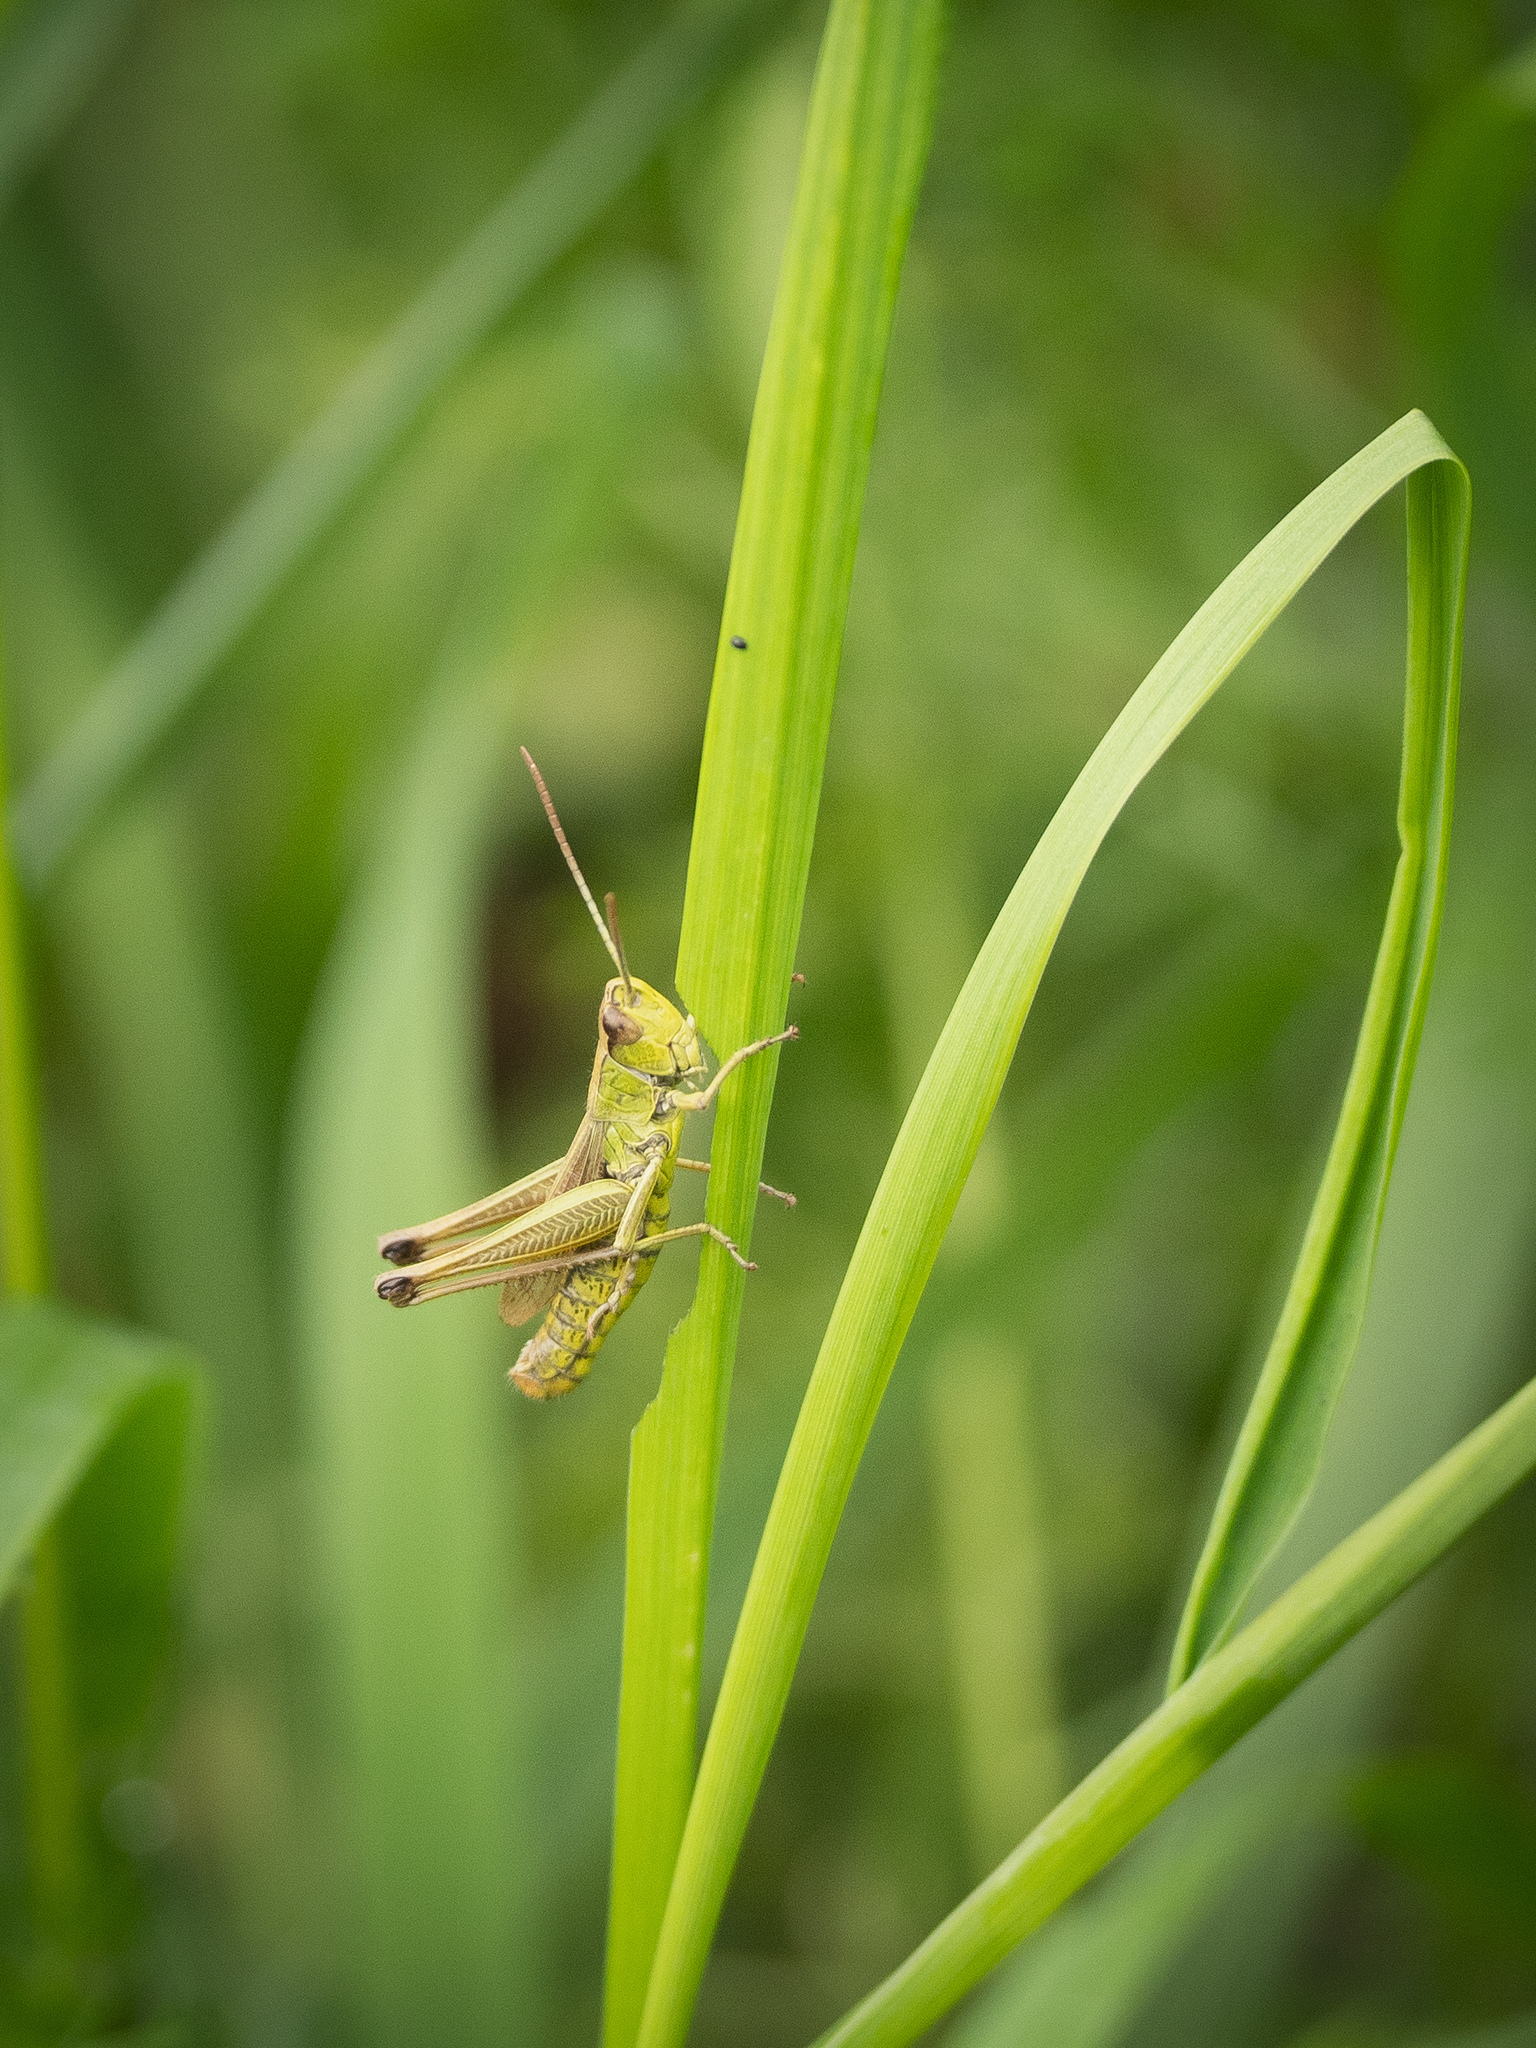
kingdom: Animalia
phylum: Arthropoda
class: Insecta
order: Orthoptera
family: Acrididae
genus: Pseudochorthippus
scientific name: Pseudochorthippus parallelus
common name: Meadow grasshopper
